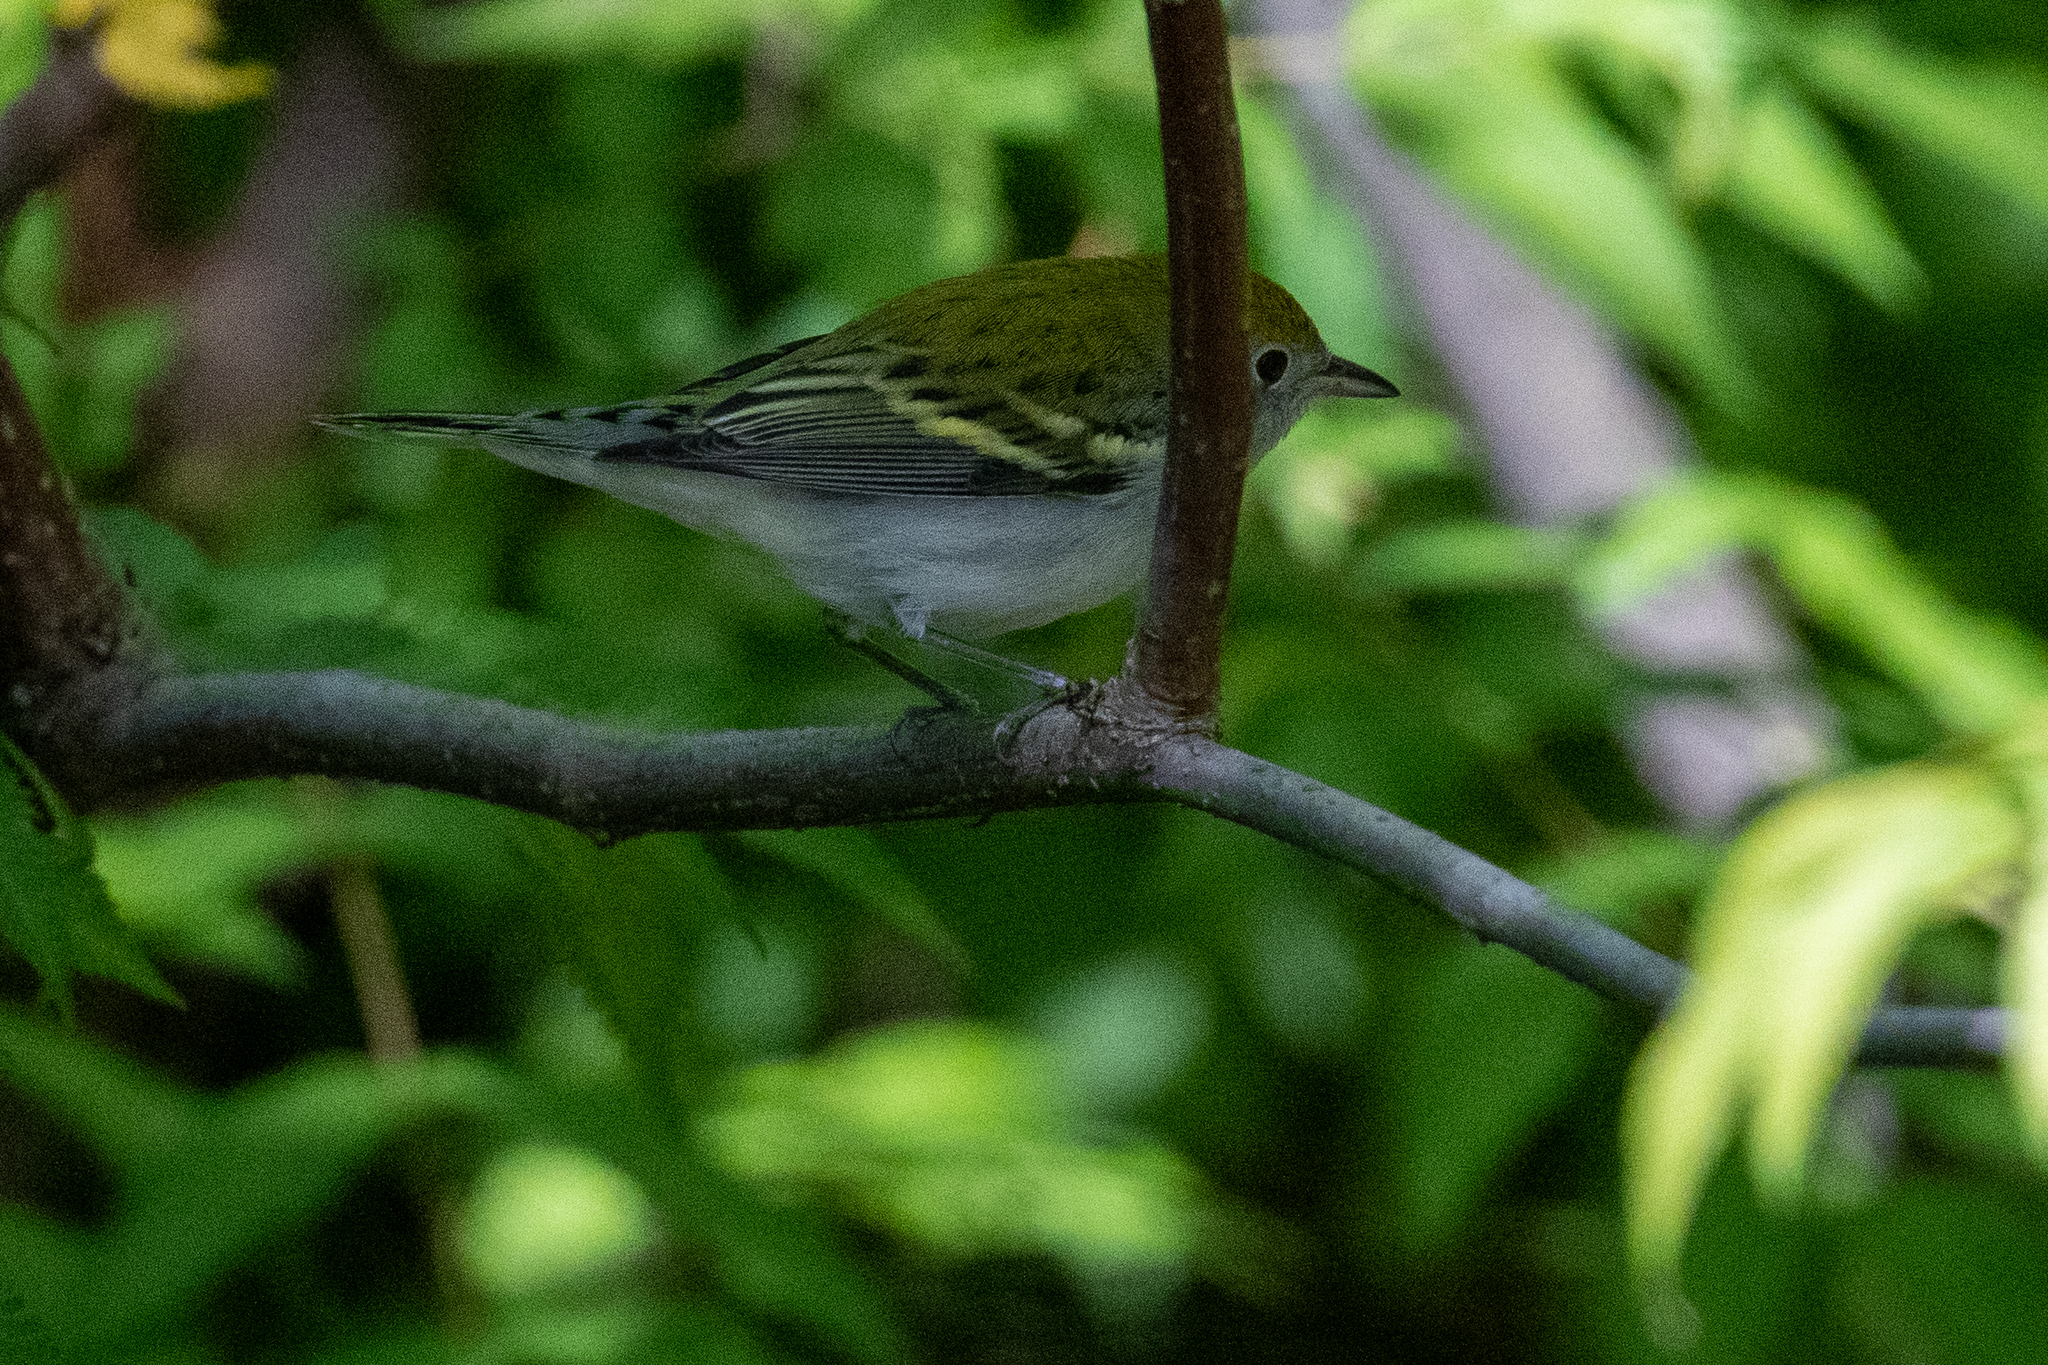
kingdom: Animalia
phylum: Chordata
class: Aves
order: Passeriformes
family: Parulidae
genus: Setophaga
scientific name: Setophaga pensylvanica
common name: Chestnut-sided warbler
